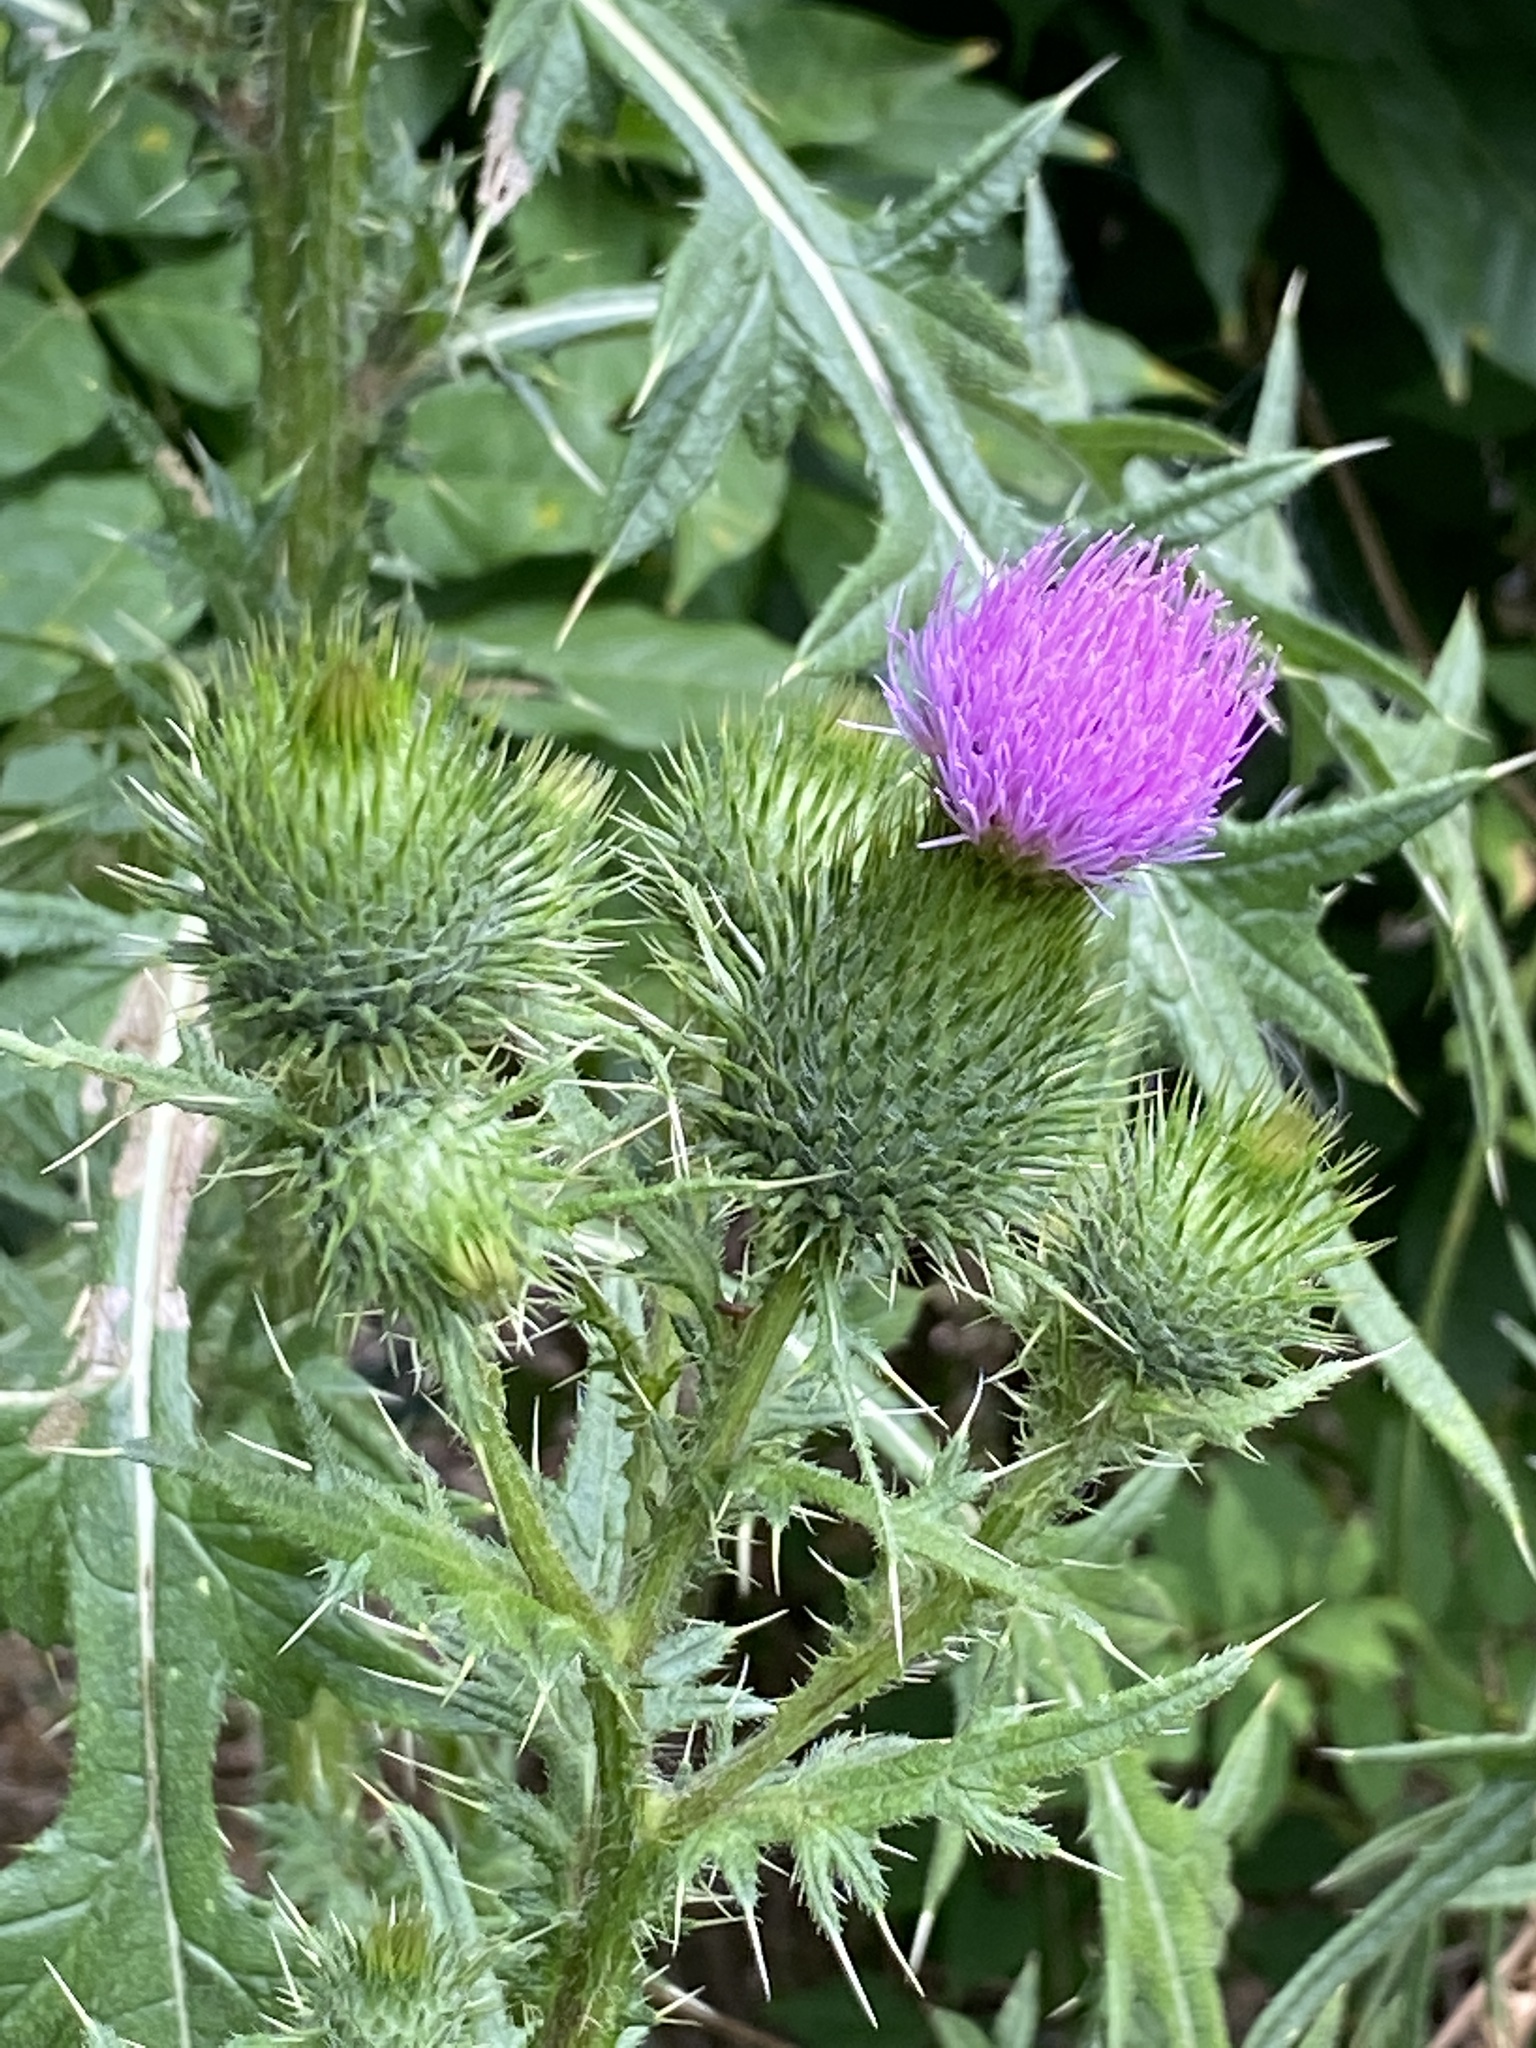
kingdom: Plantae
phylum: Tracheophyta
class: Magnoliopsida
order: Asterales
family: Asteraceae
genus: Cirsium
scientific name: Cirsium vulgare
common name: Bull thistle
